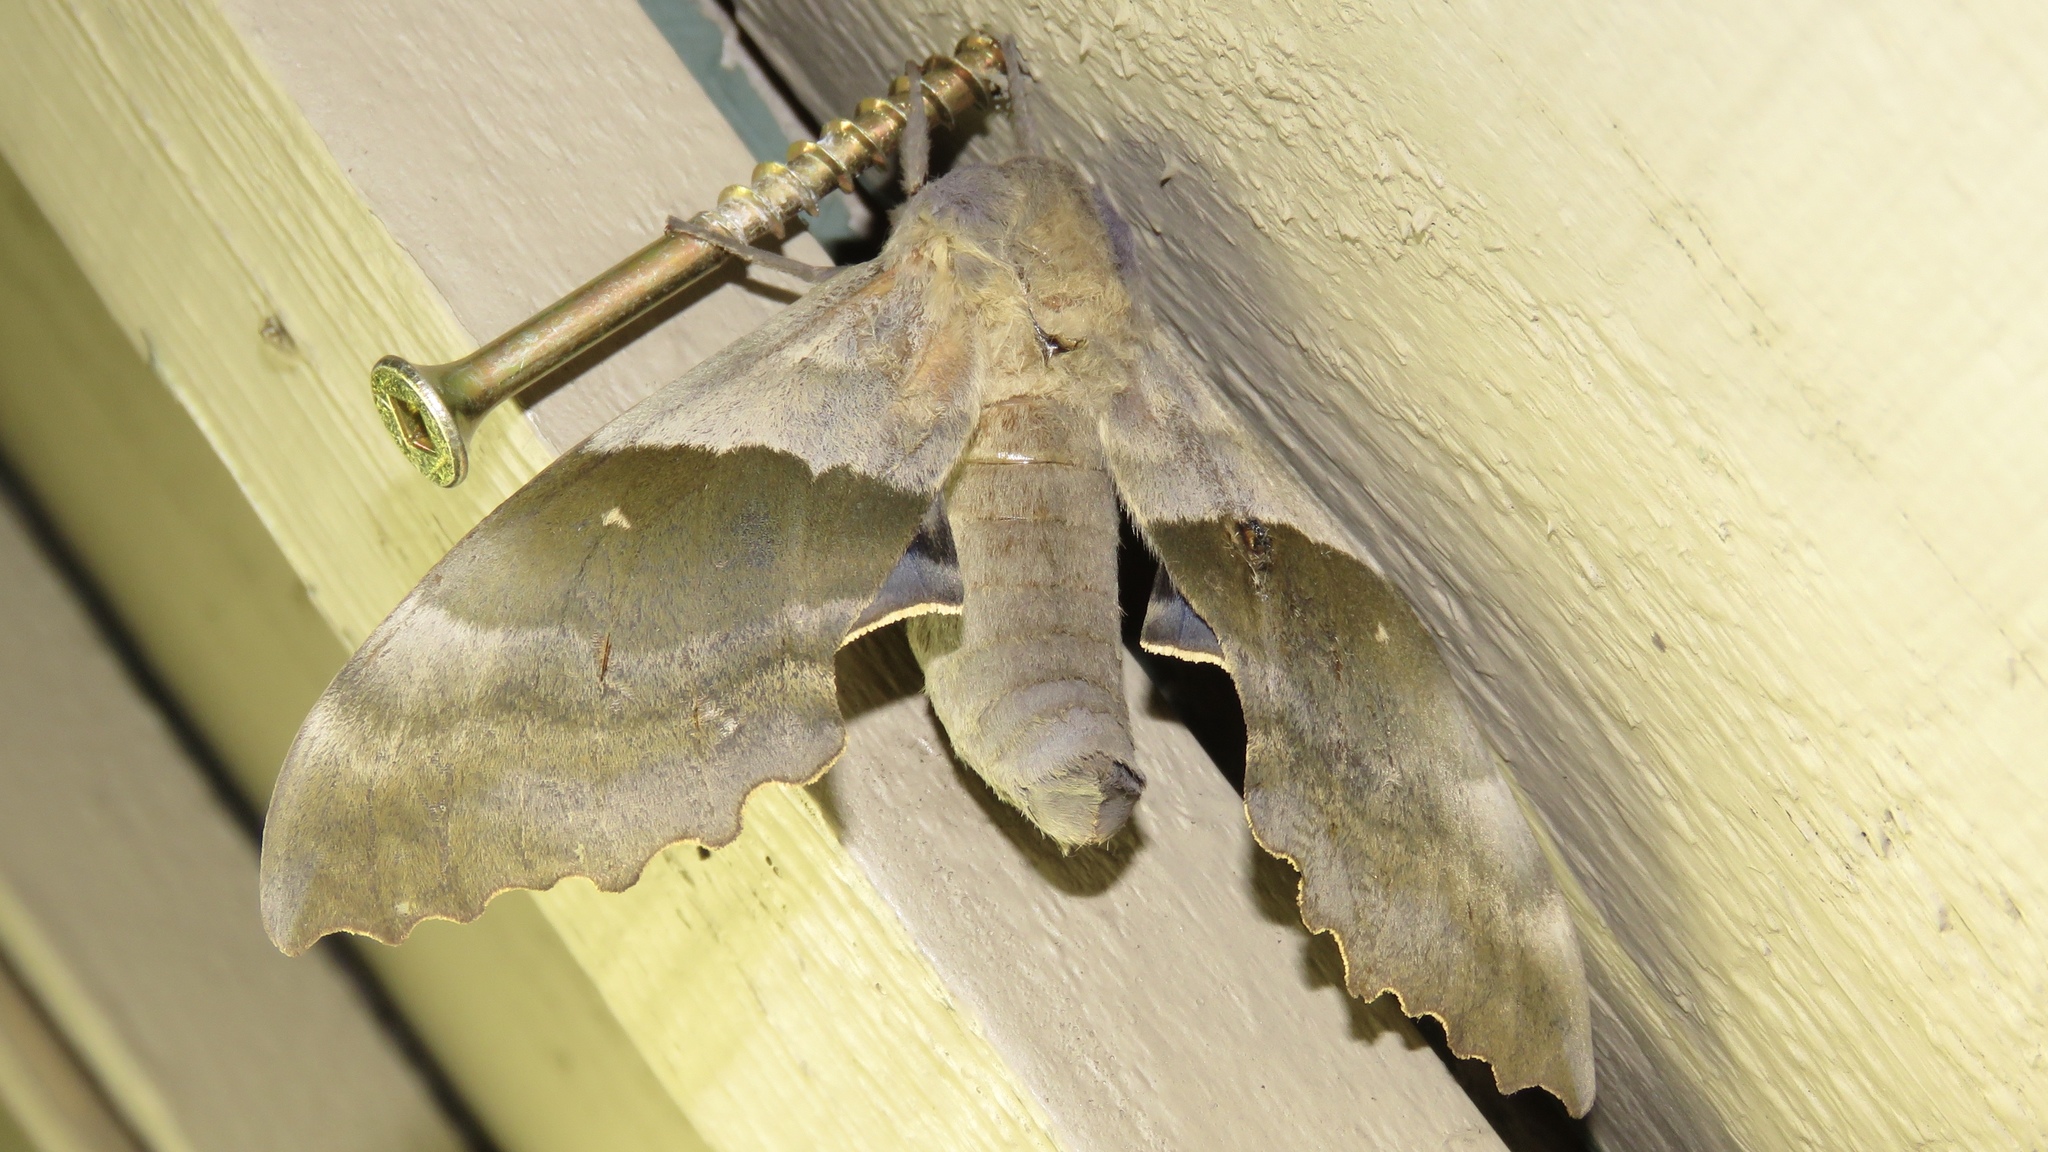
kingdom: Animalia
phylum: Arthropoda
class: Insecta
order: Lepidoptera
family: Sphingidae
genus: Pachysphinx
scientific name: Pachysphinx modesta
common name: Big poplar sphinx
